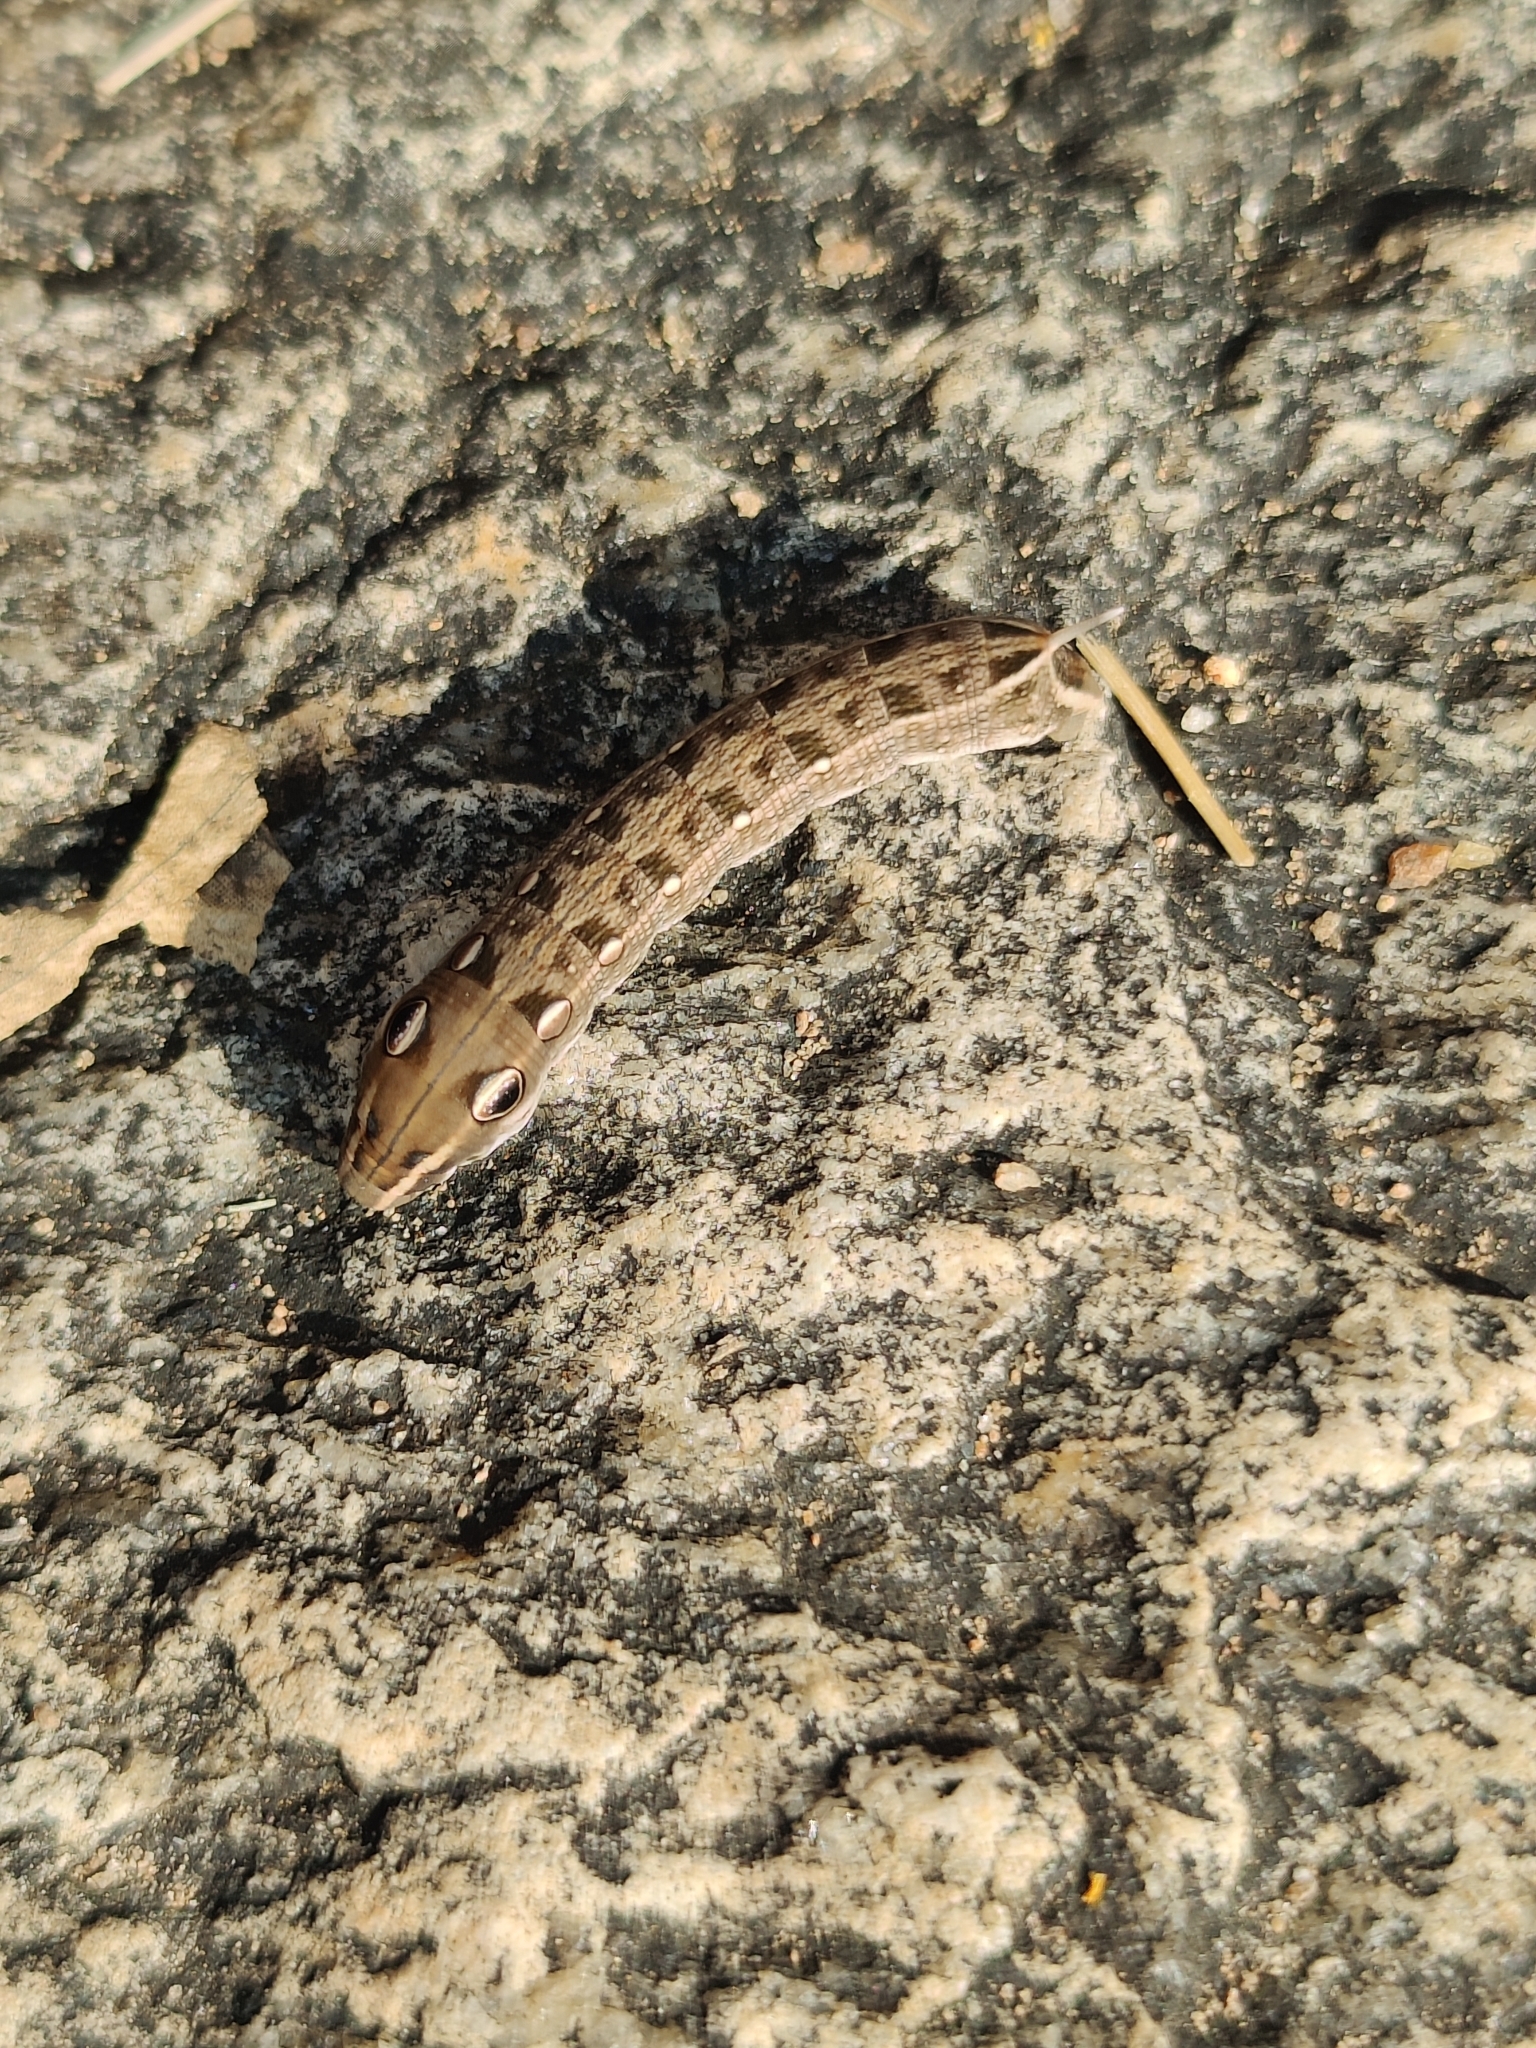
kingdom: Animalia
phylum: Arthropoda
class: Insecta
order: Lepidoptera
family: Sphingidae
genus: Hippotion
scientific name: Hippotion rosetta
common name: Vine hawk moth
